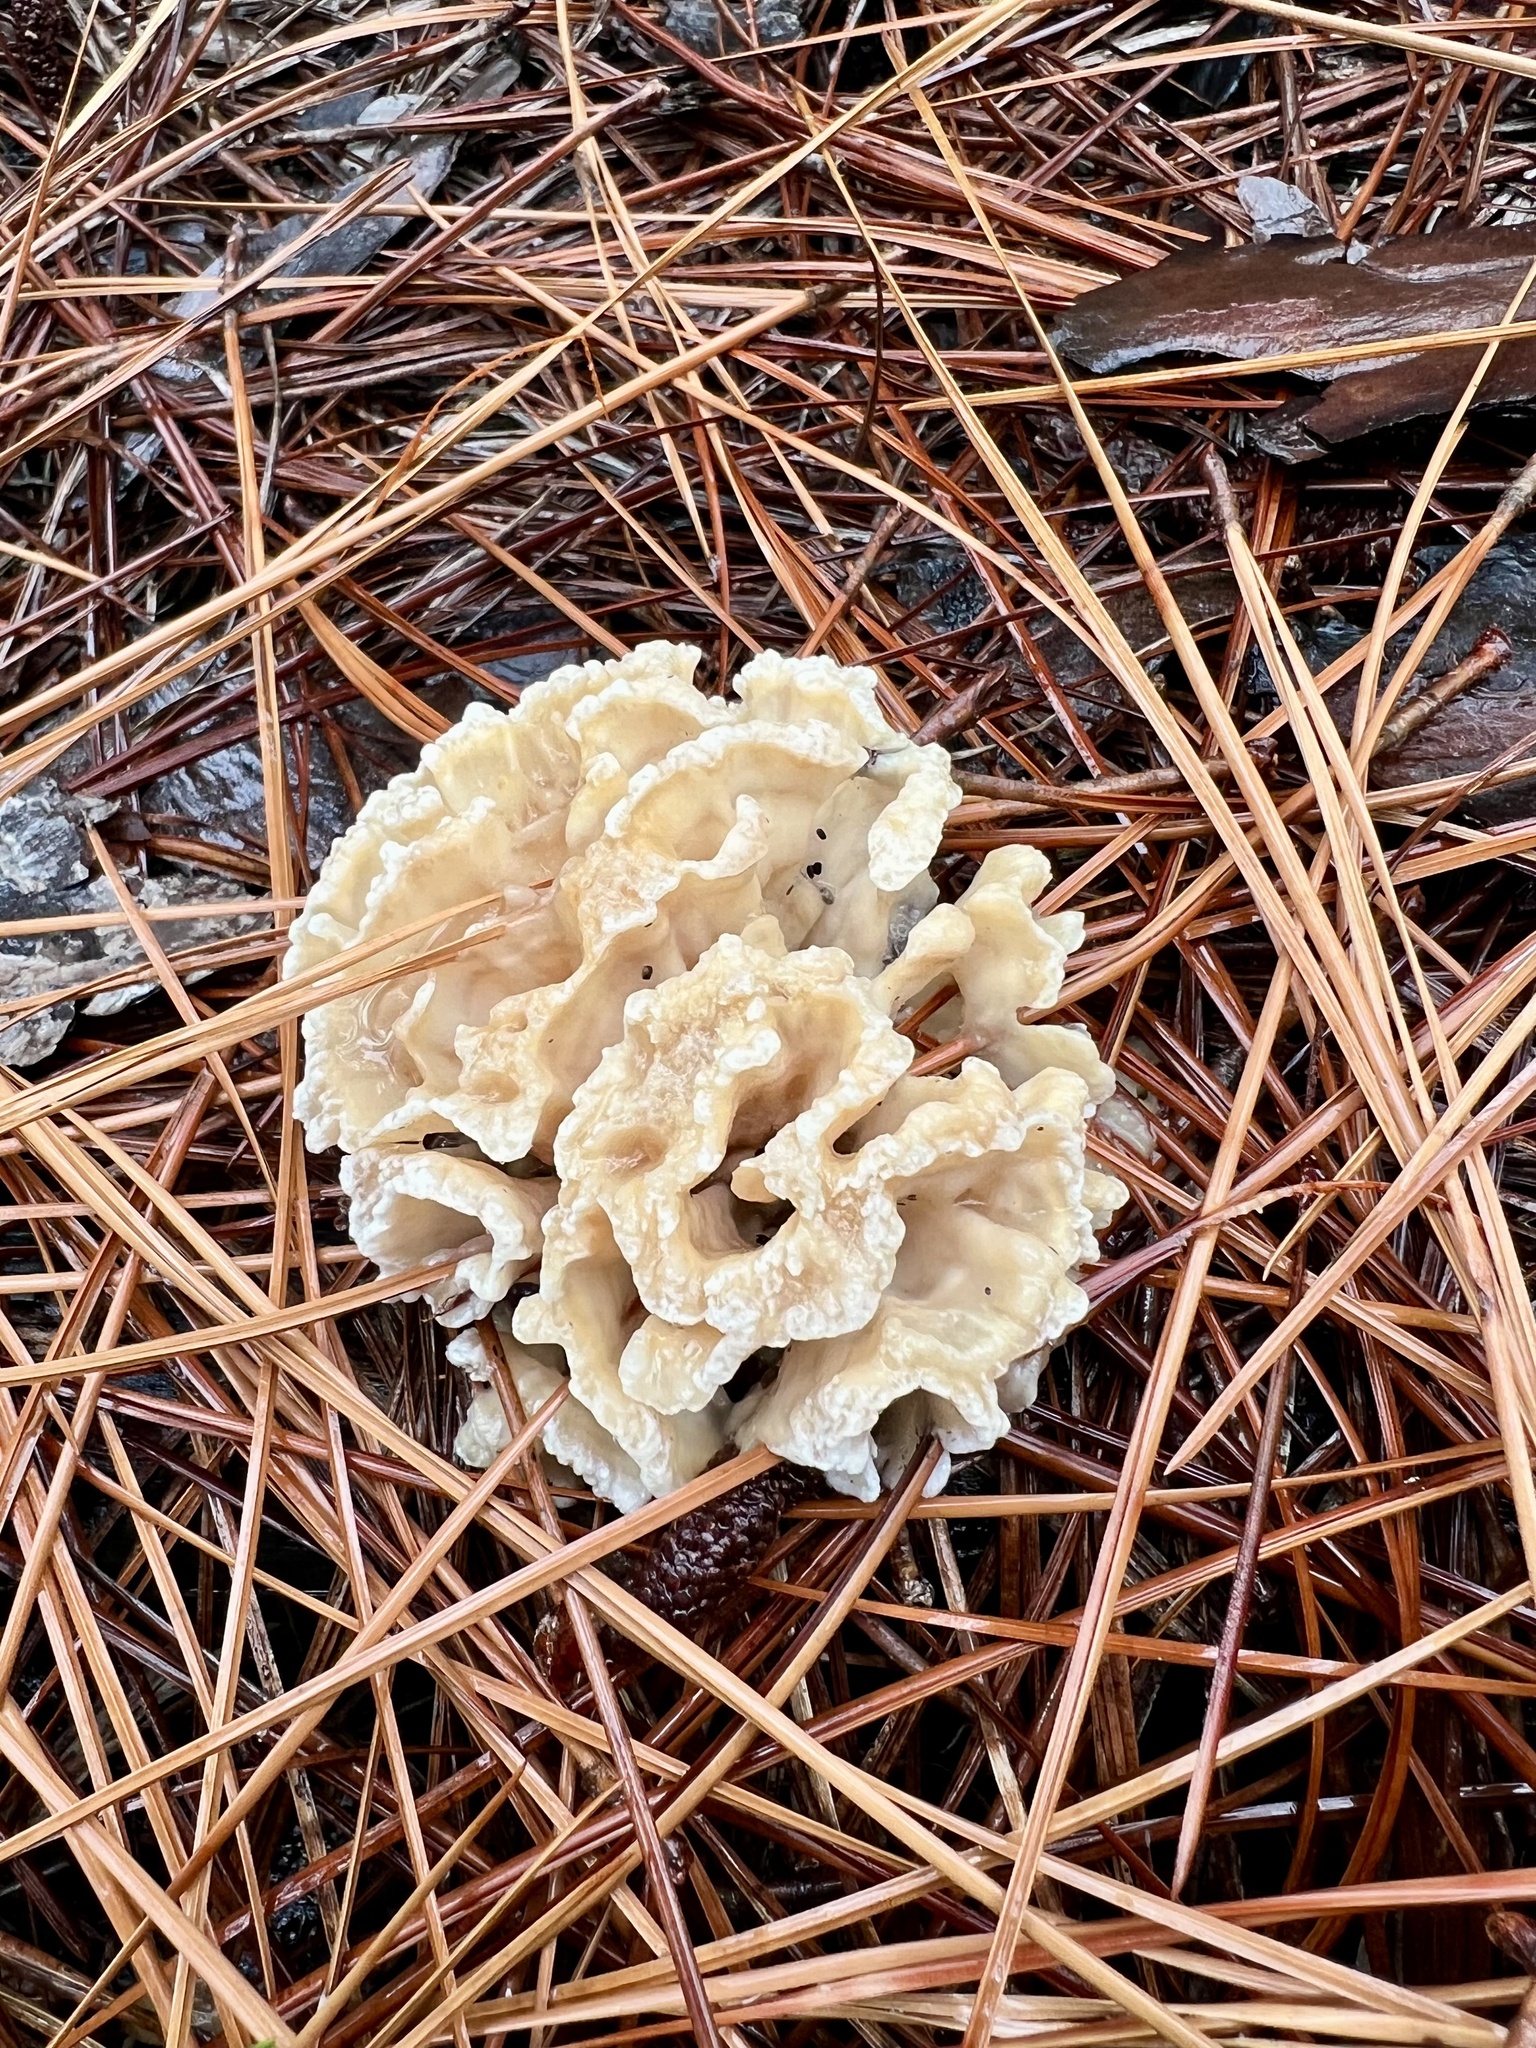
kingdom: Fungi
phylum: Basidiomycota
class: Agaricomycetes
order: Polyporales
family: Sparassidaceae
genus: Sparassis
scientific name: Sparassis spathulata
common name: Eastern cauliflower mushroom
